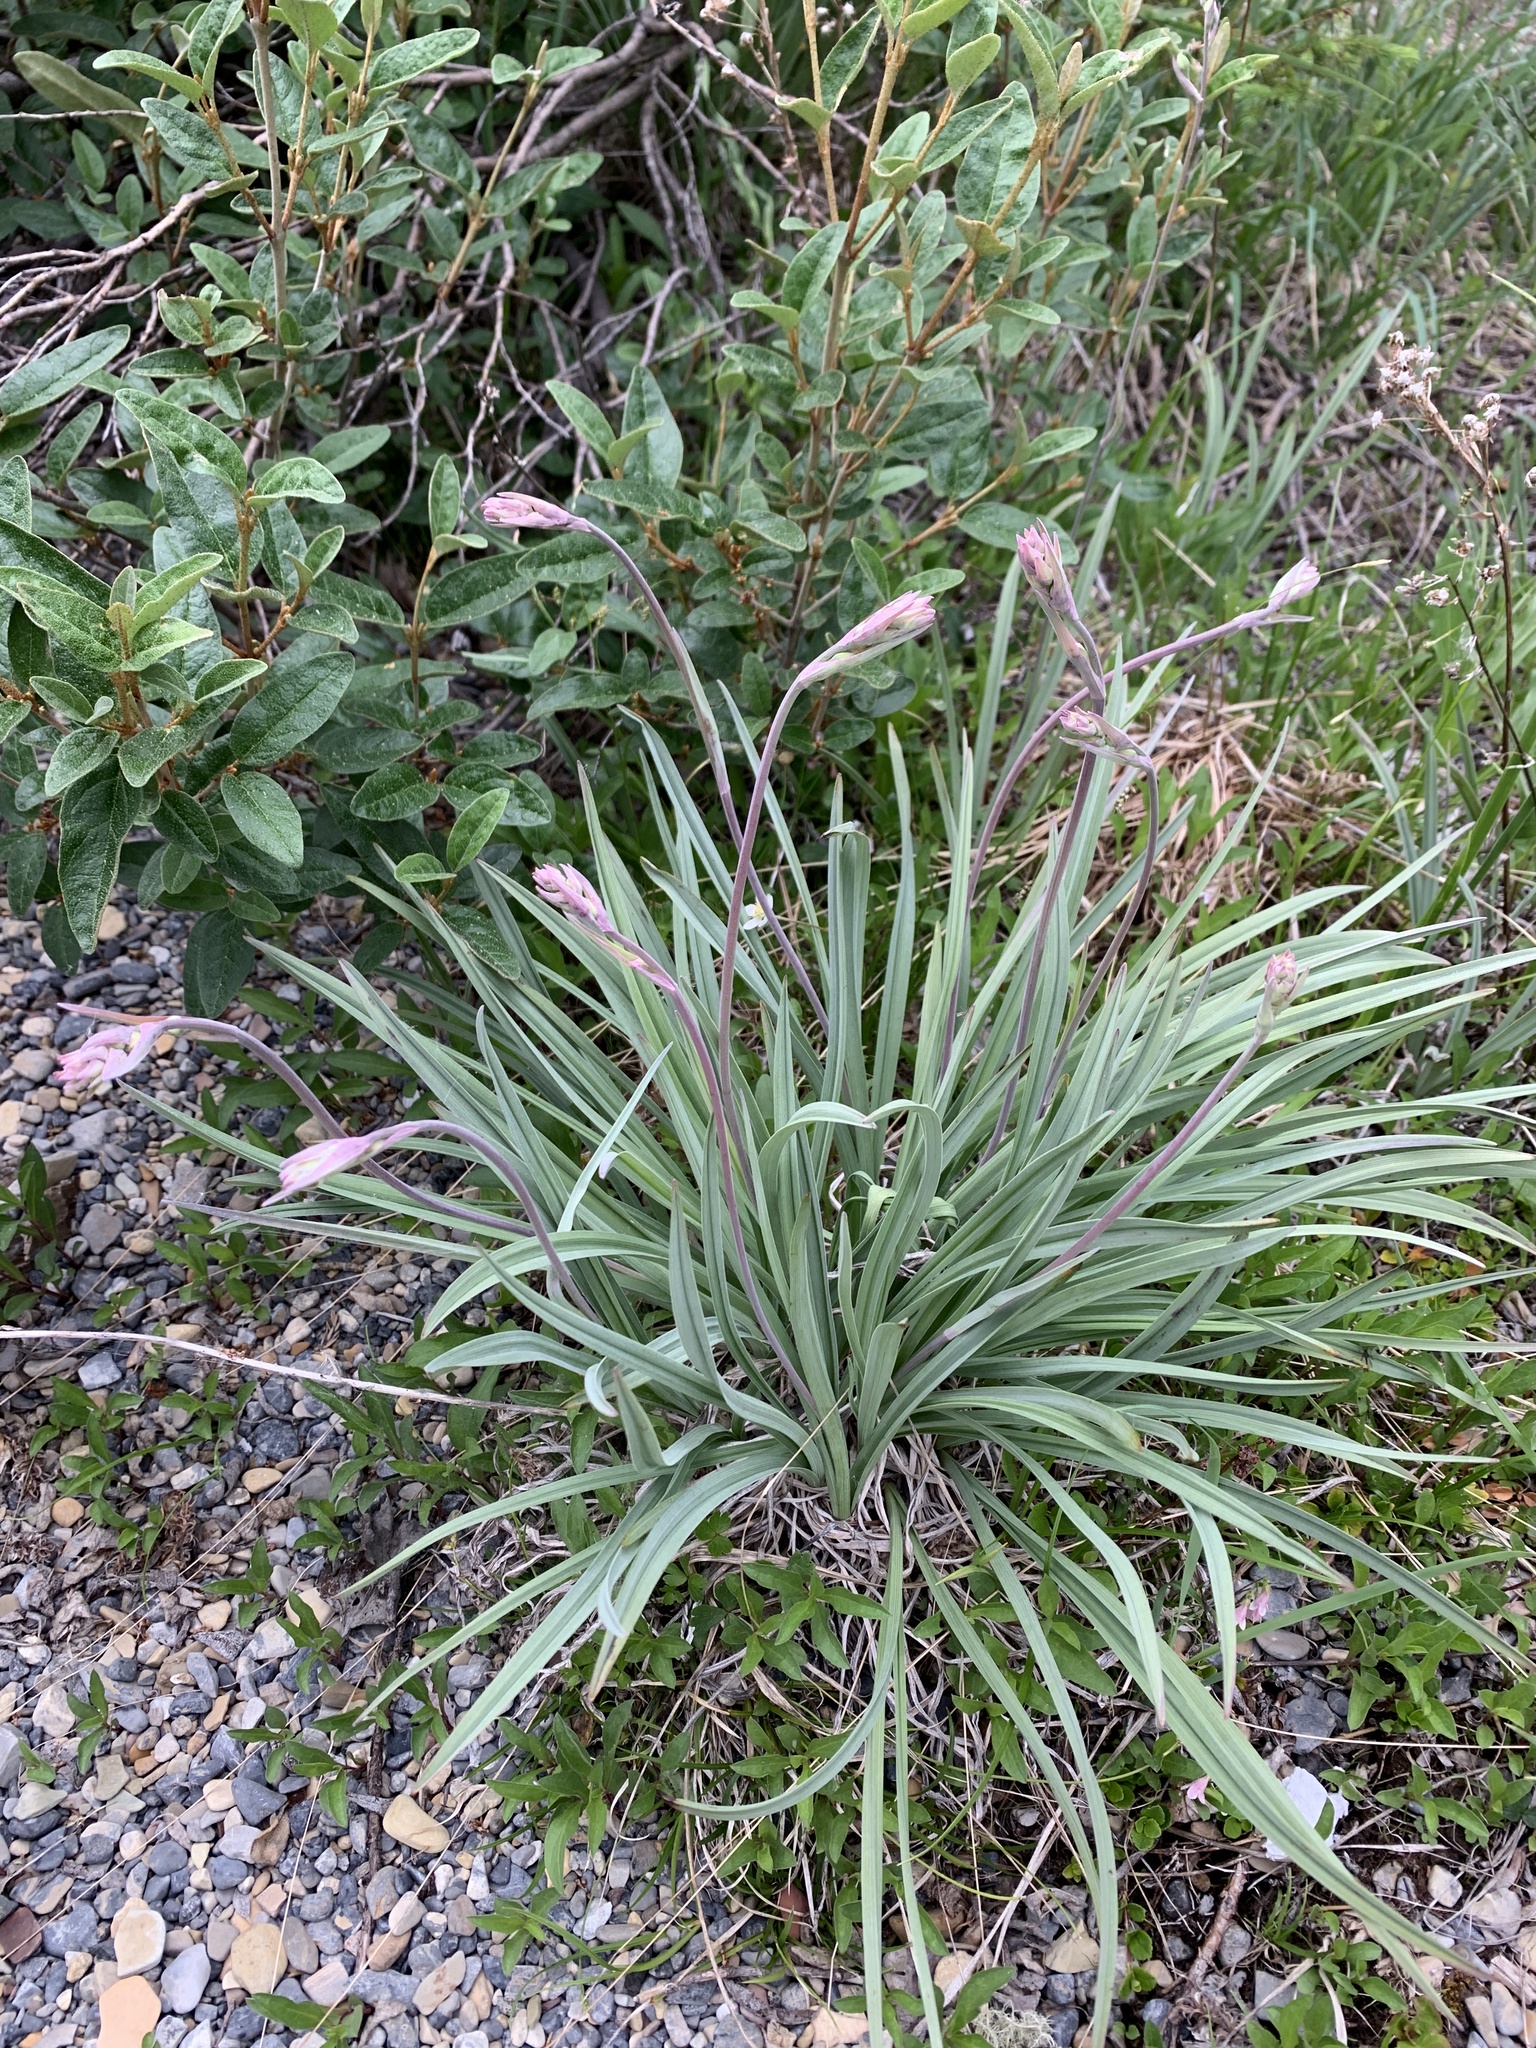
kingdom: Plantae
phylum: Tracheophyta
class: Liliopsida
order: Liliales
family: Melanthiaceae
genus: Anticlea
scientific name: Anticlea elegans
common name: Mountain death camas
